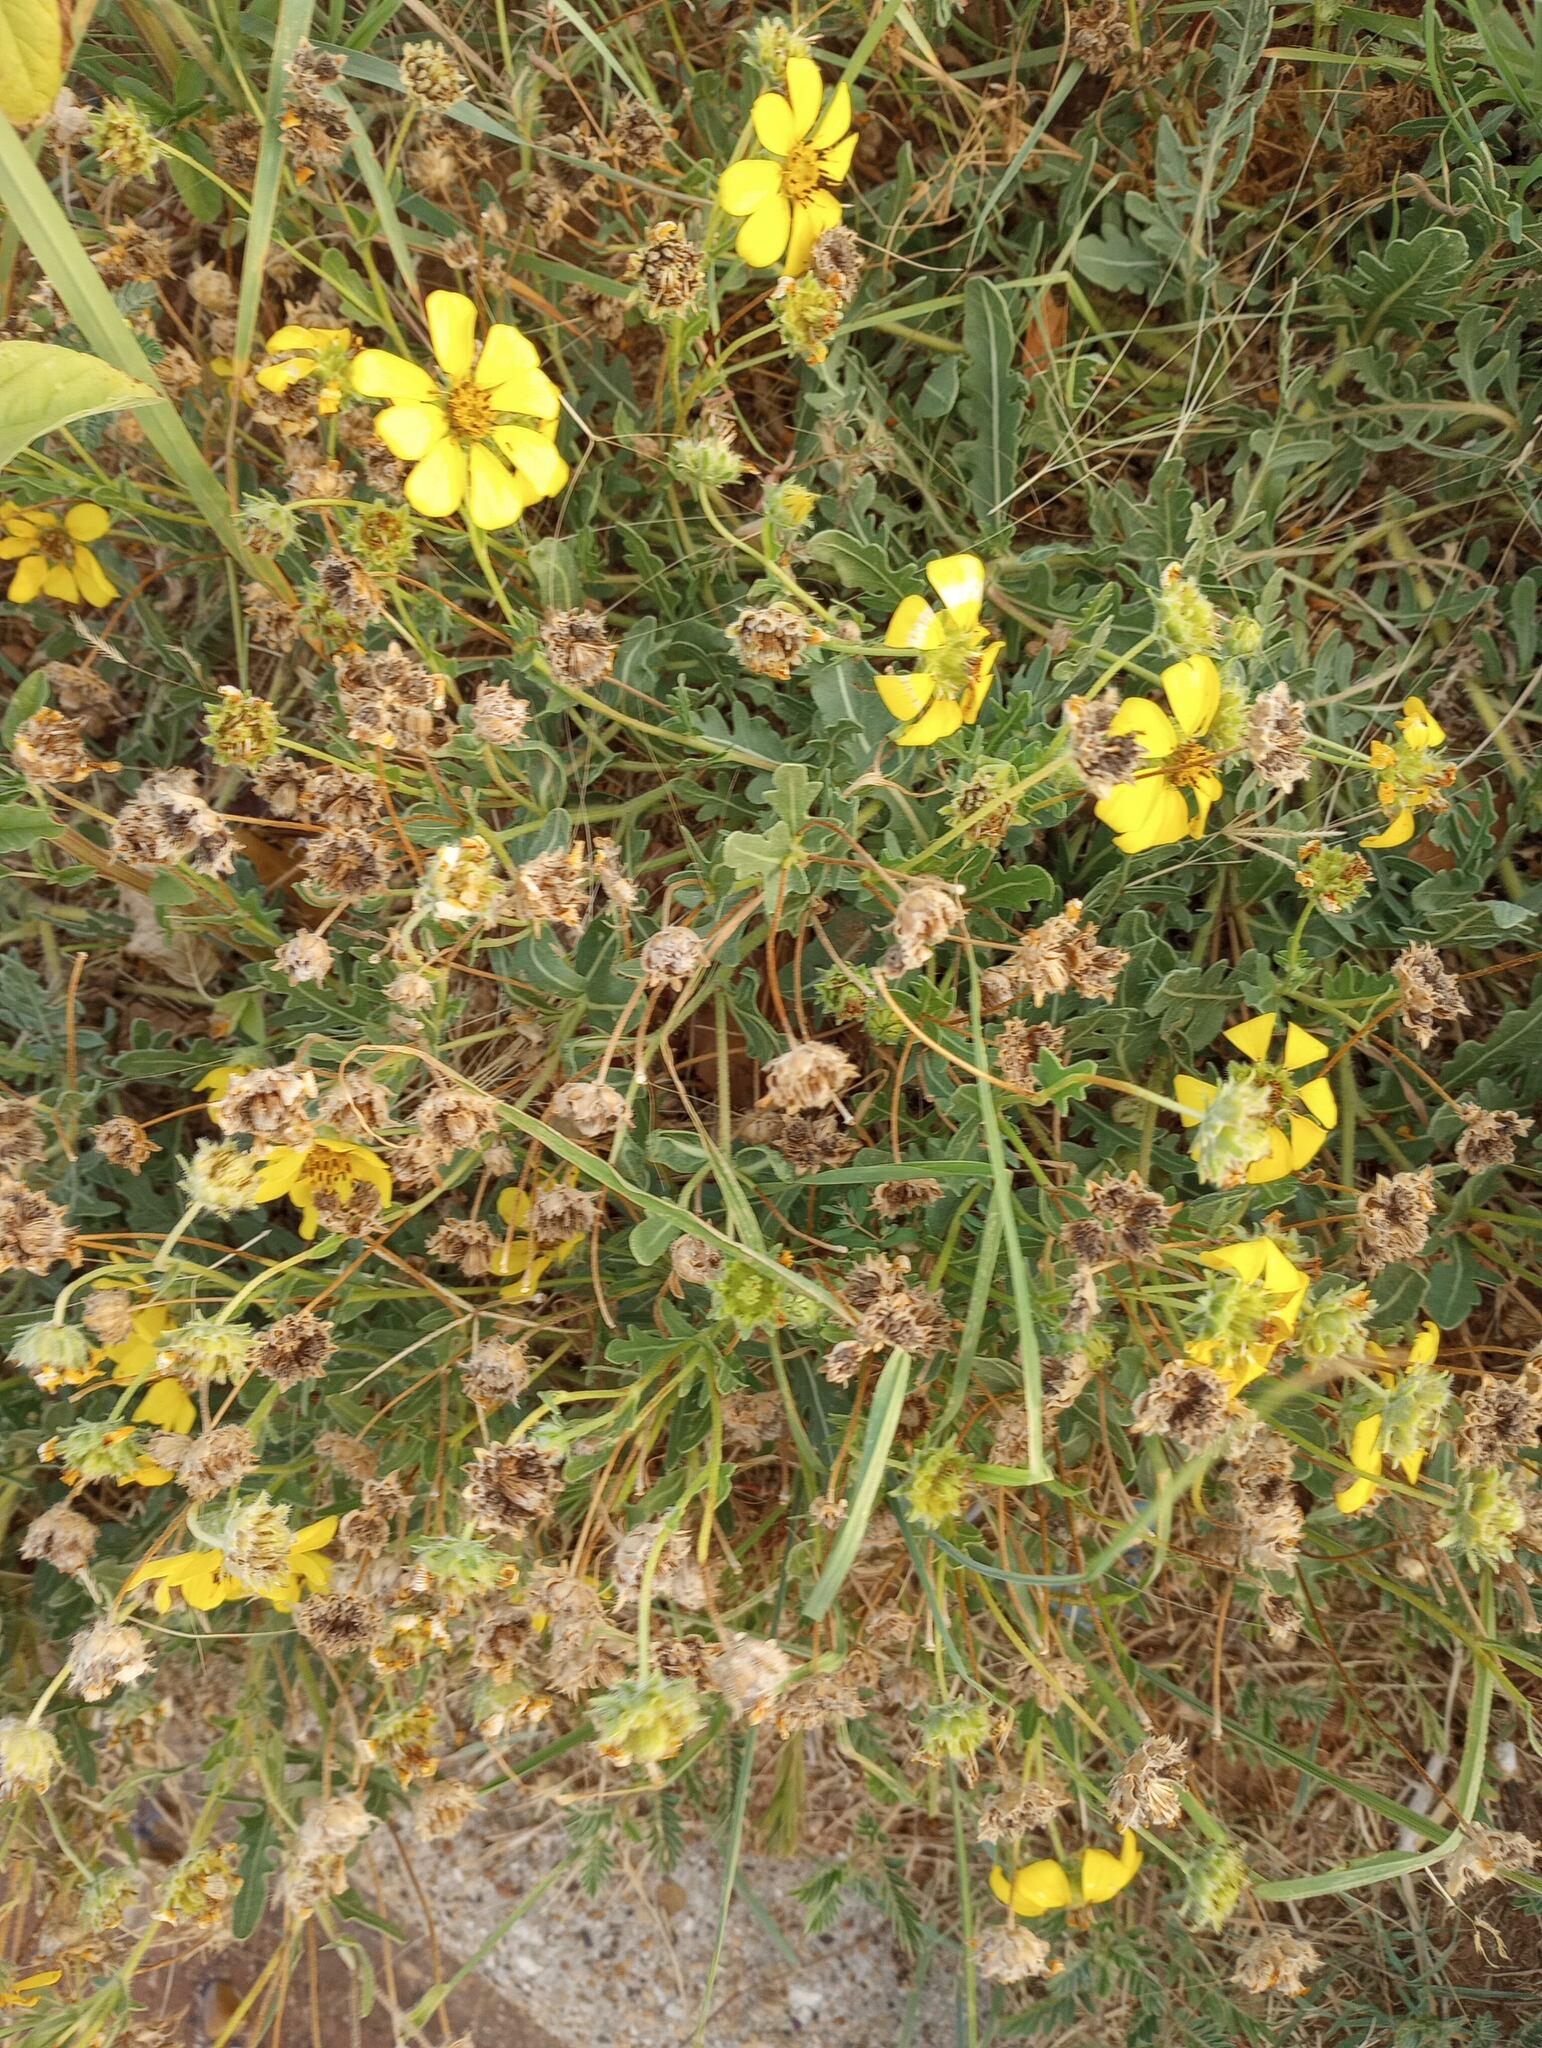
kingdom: Plantae
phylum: Tracheophyta
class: Magnoliopsida
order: Asterales
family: Asteraceae
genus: Engelmannia
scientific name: Engelmannia peristenia
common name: Engelmann's daisy
